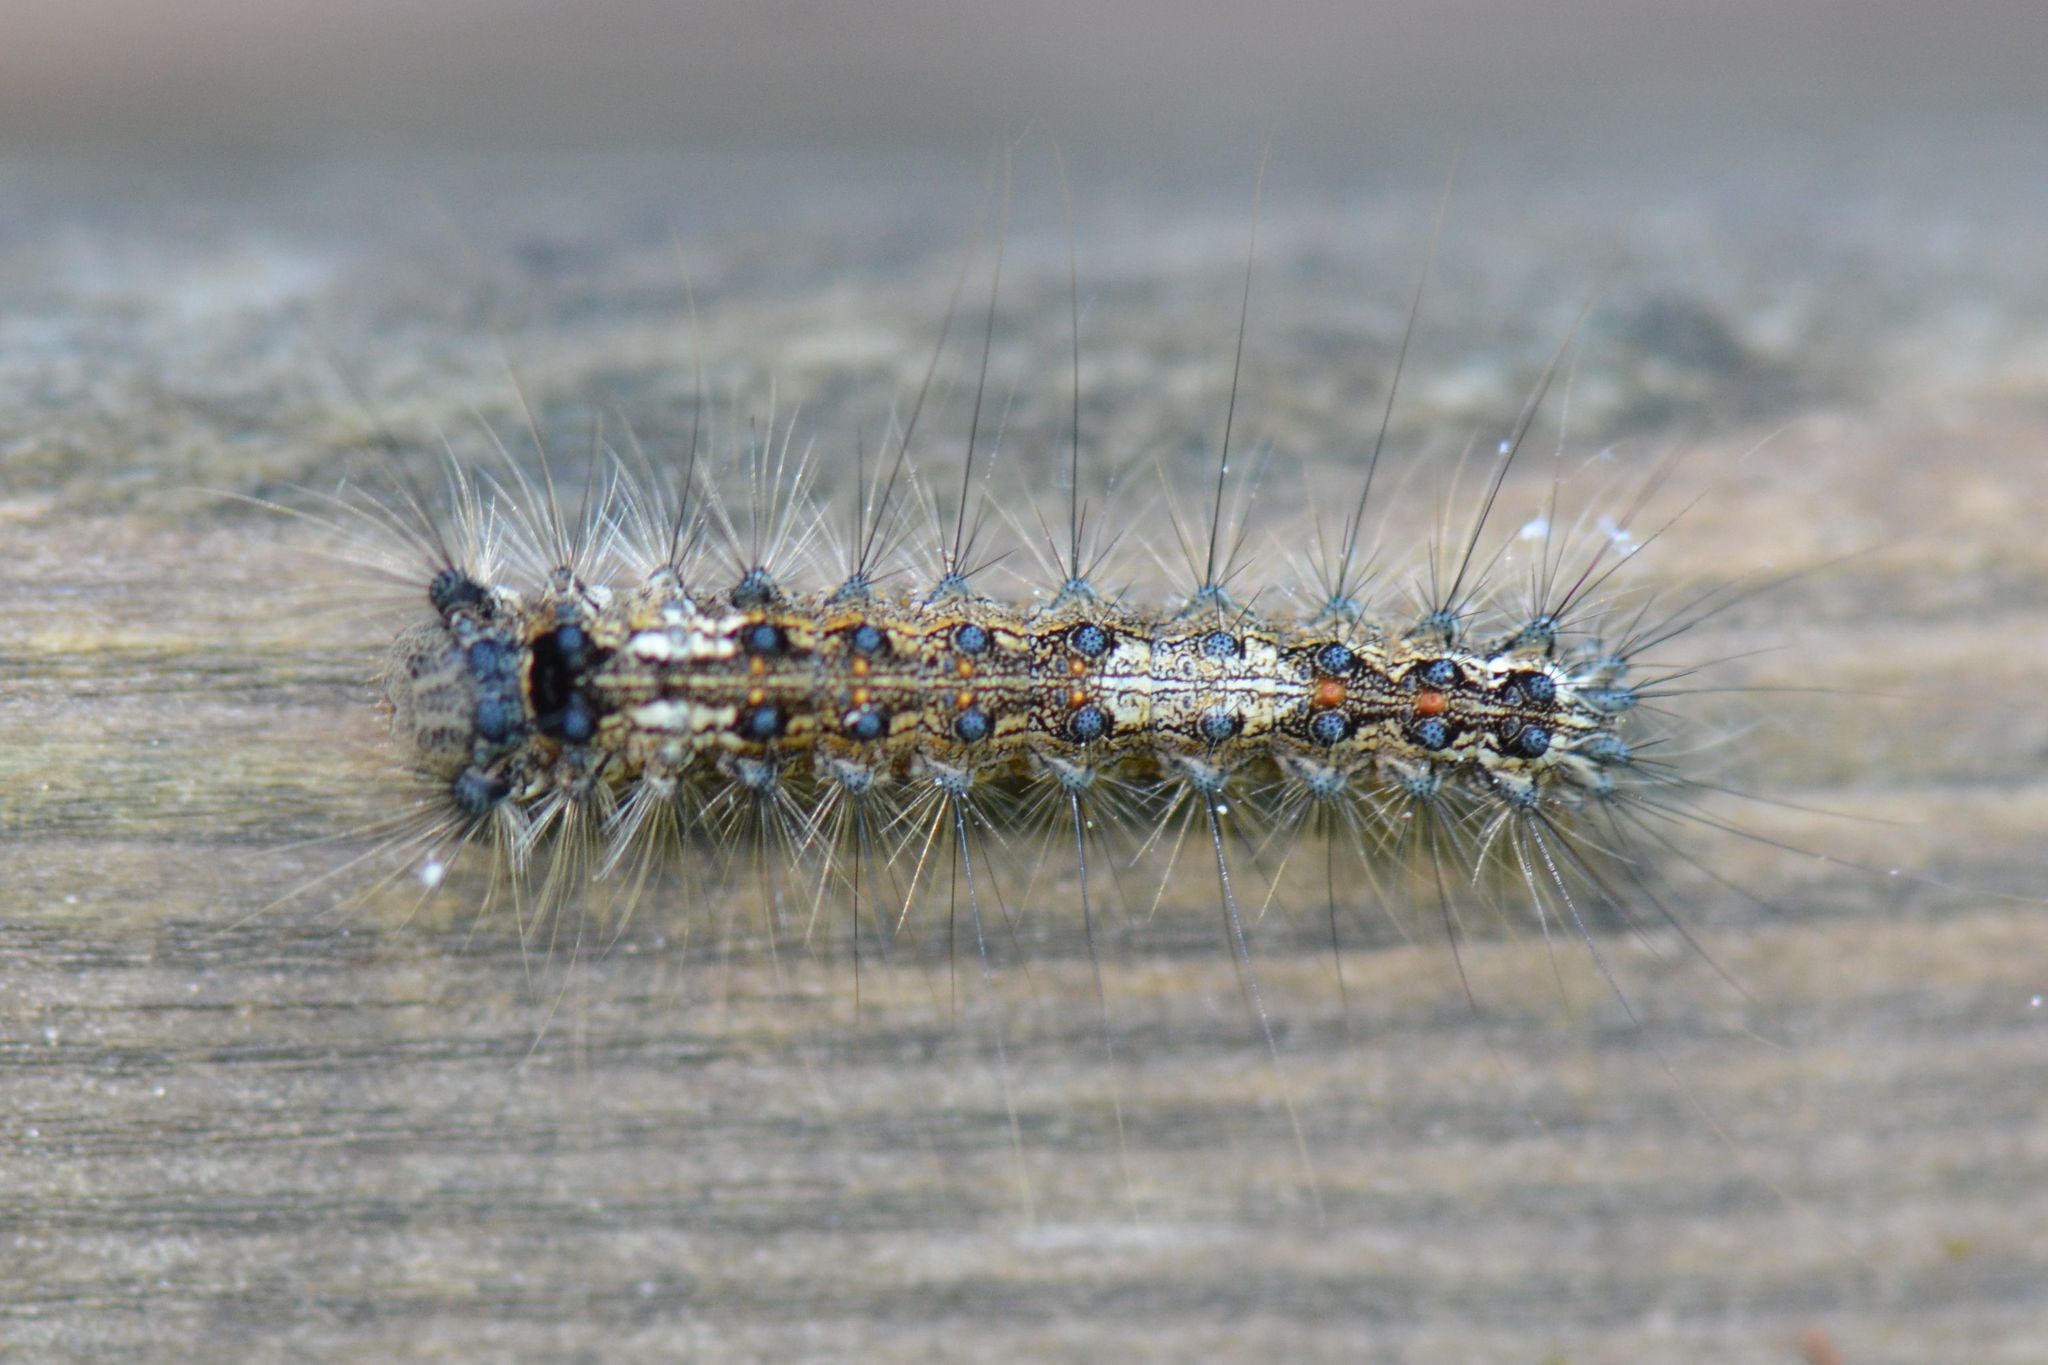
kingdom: Animalia
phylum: Arthropoda
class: Insecta
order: Lepidoptera
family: Erebidae
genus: Lymantria
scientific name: Lymantria monacha
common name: Black arches
